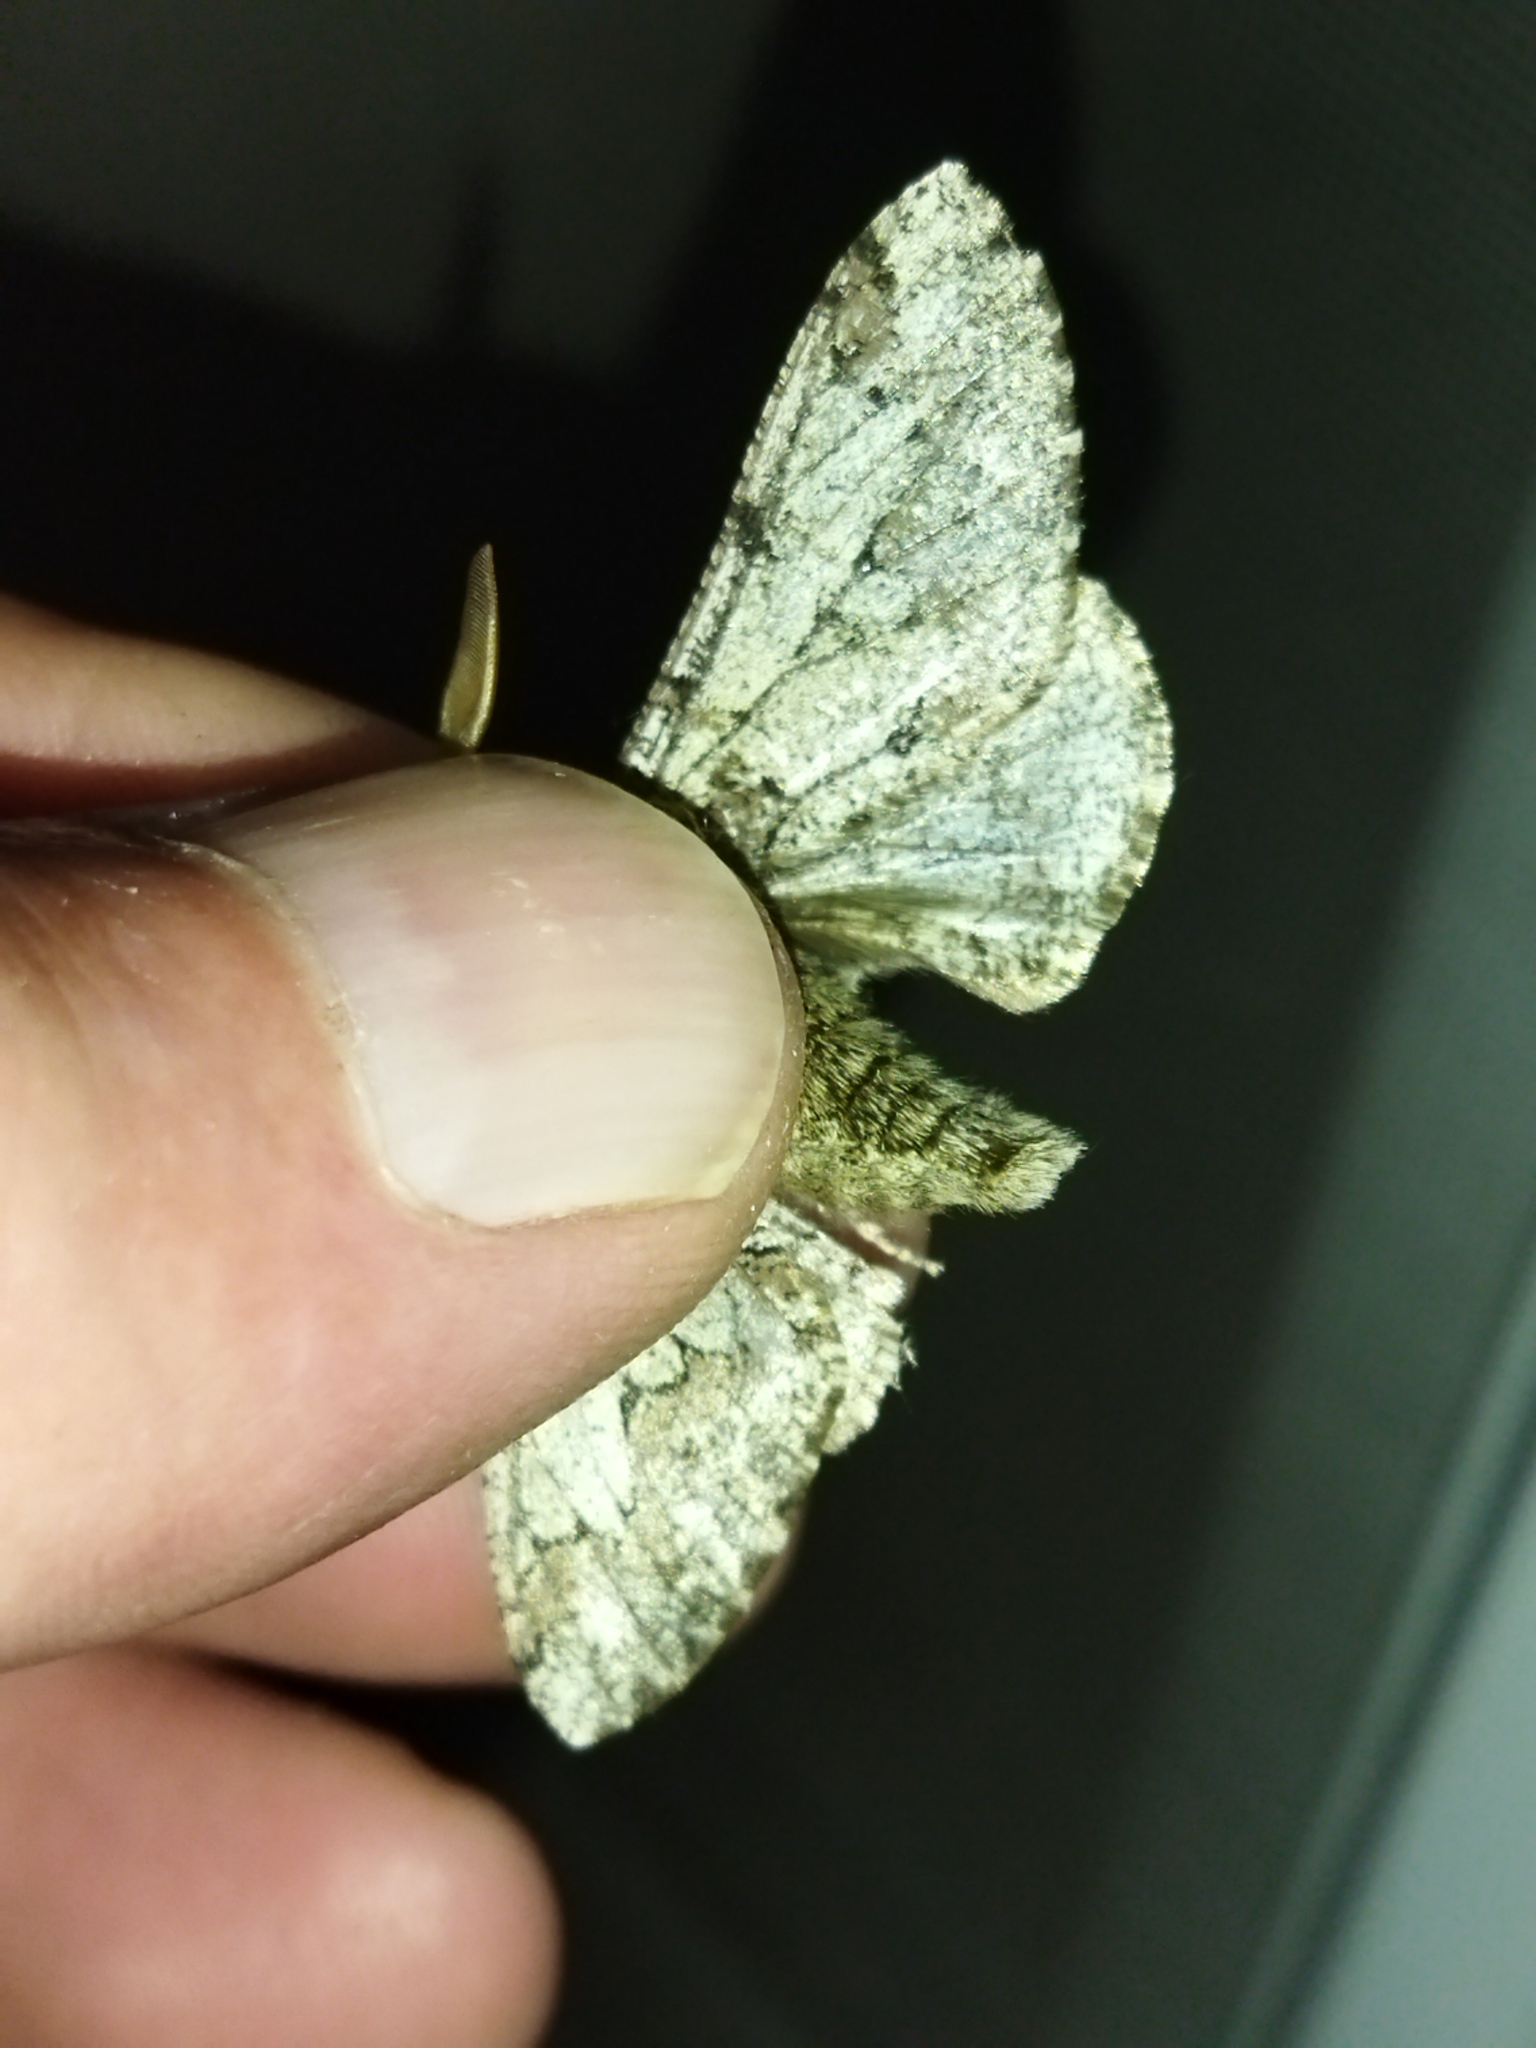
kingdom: Animalia
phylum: Arthropoda
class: Insecta
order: Lepidoptera
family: Geometridae
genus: Biston
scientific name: Biston strataria
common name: Oak beauty
